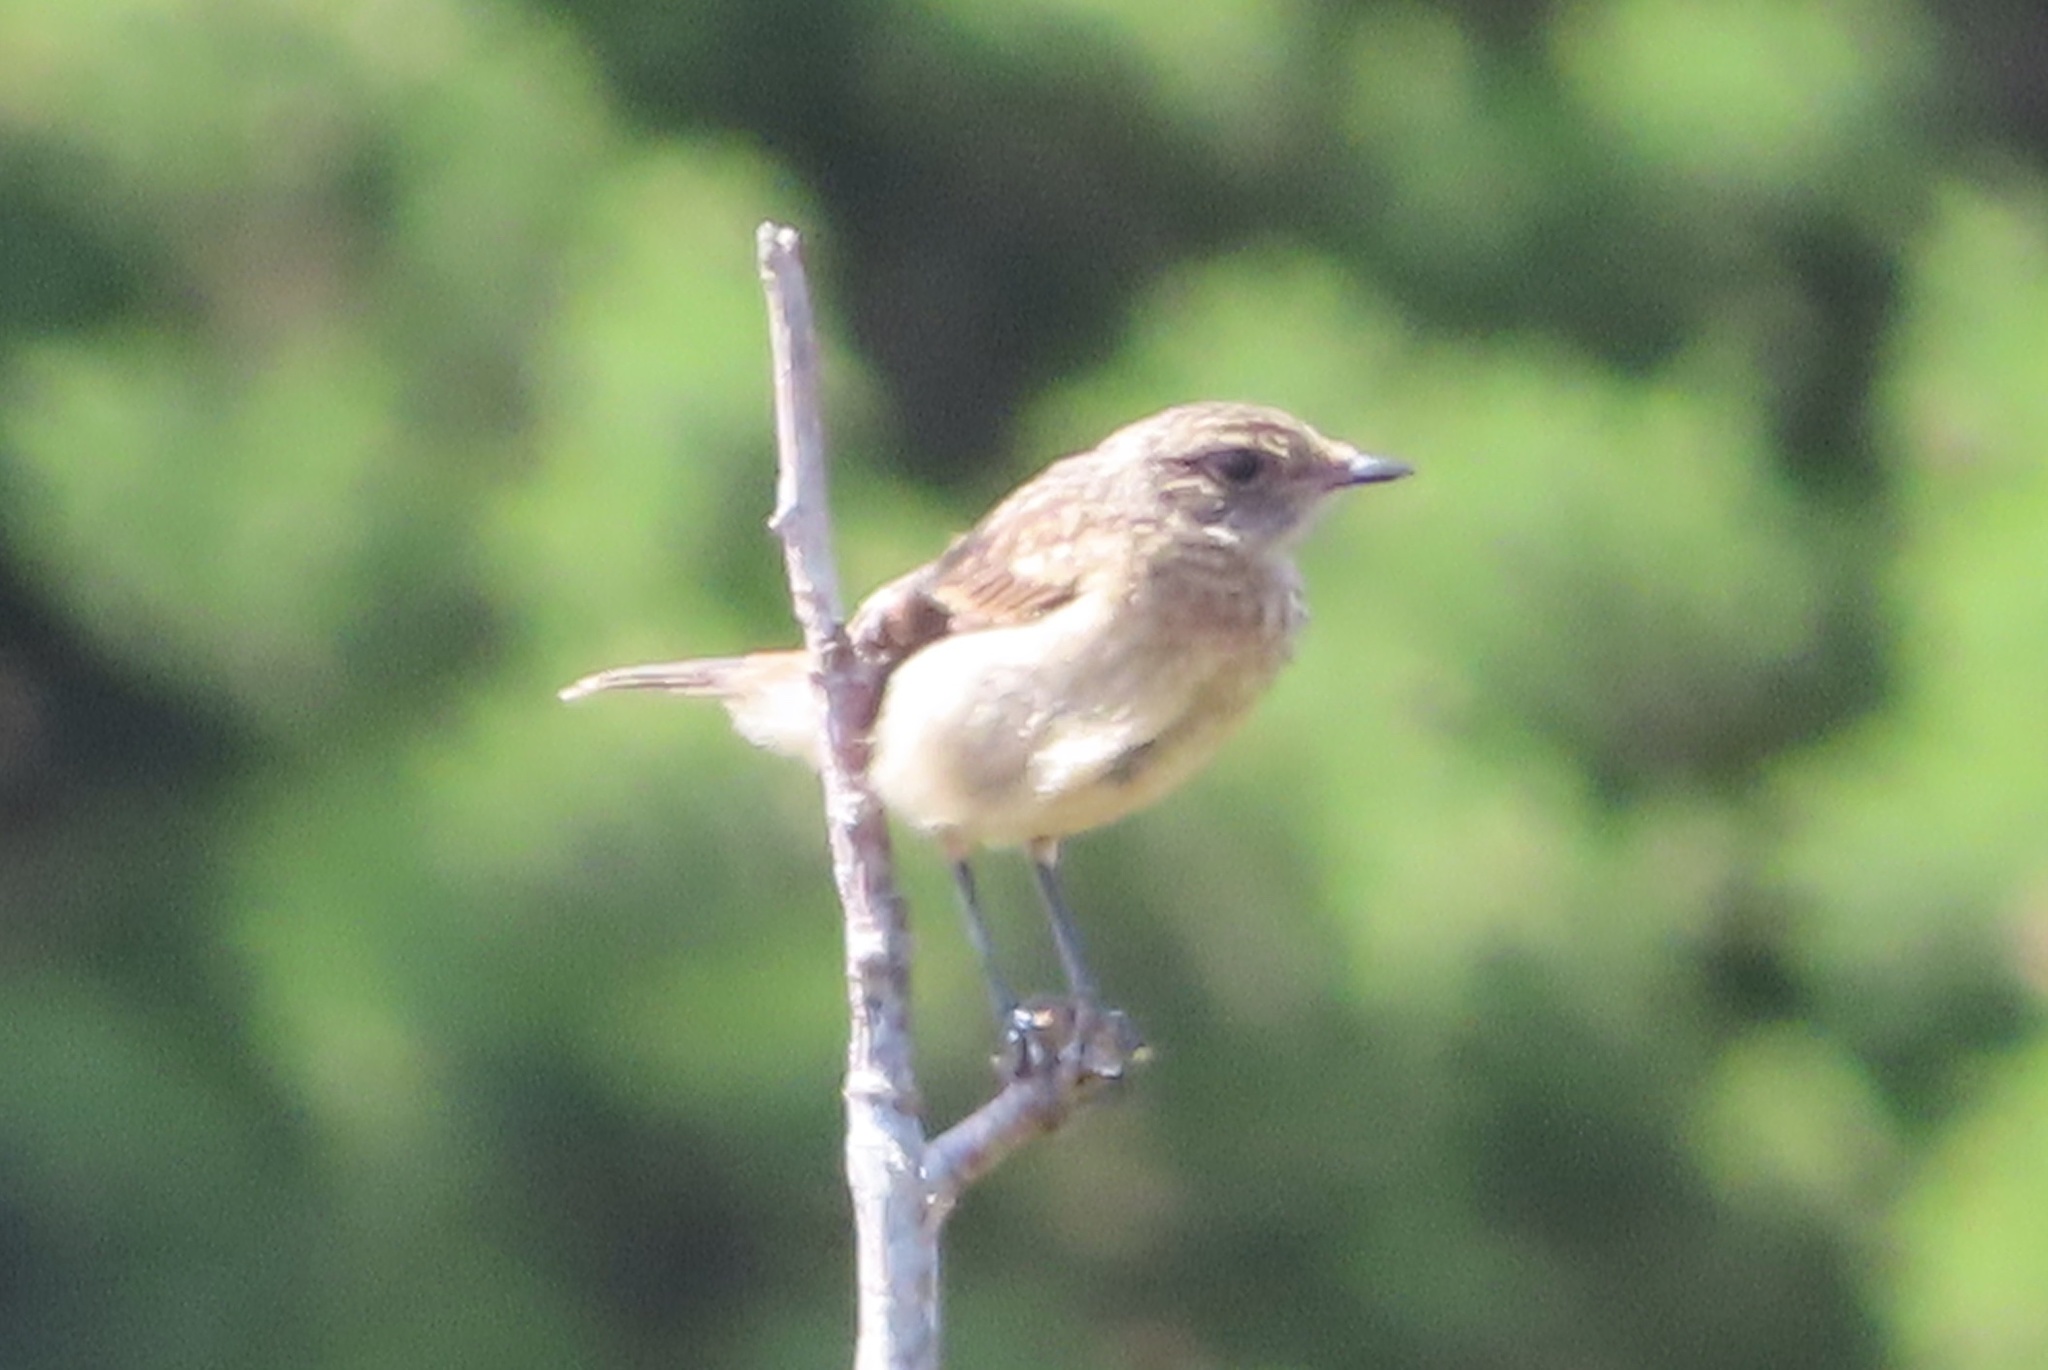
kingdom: Animalia
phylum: Chordata
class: Aves
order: Passeriformes
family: Muscicapidae
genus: Saxicola
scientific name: Saxicola rubicola
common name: European stonechat
